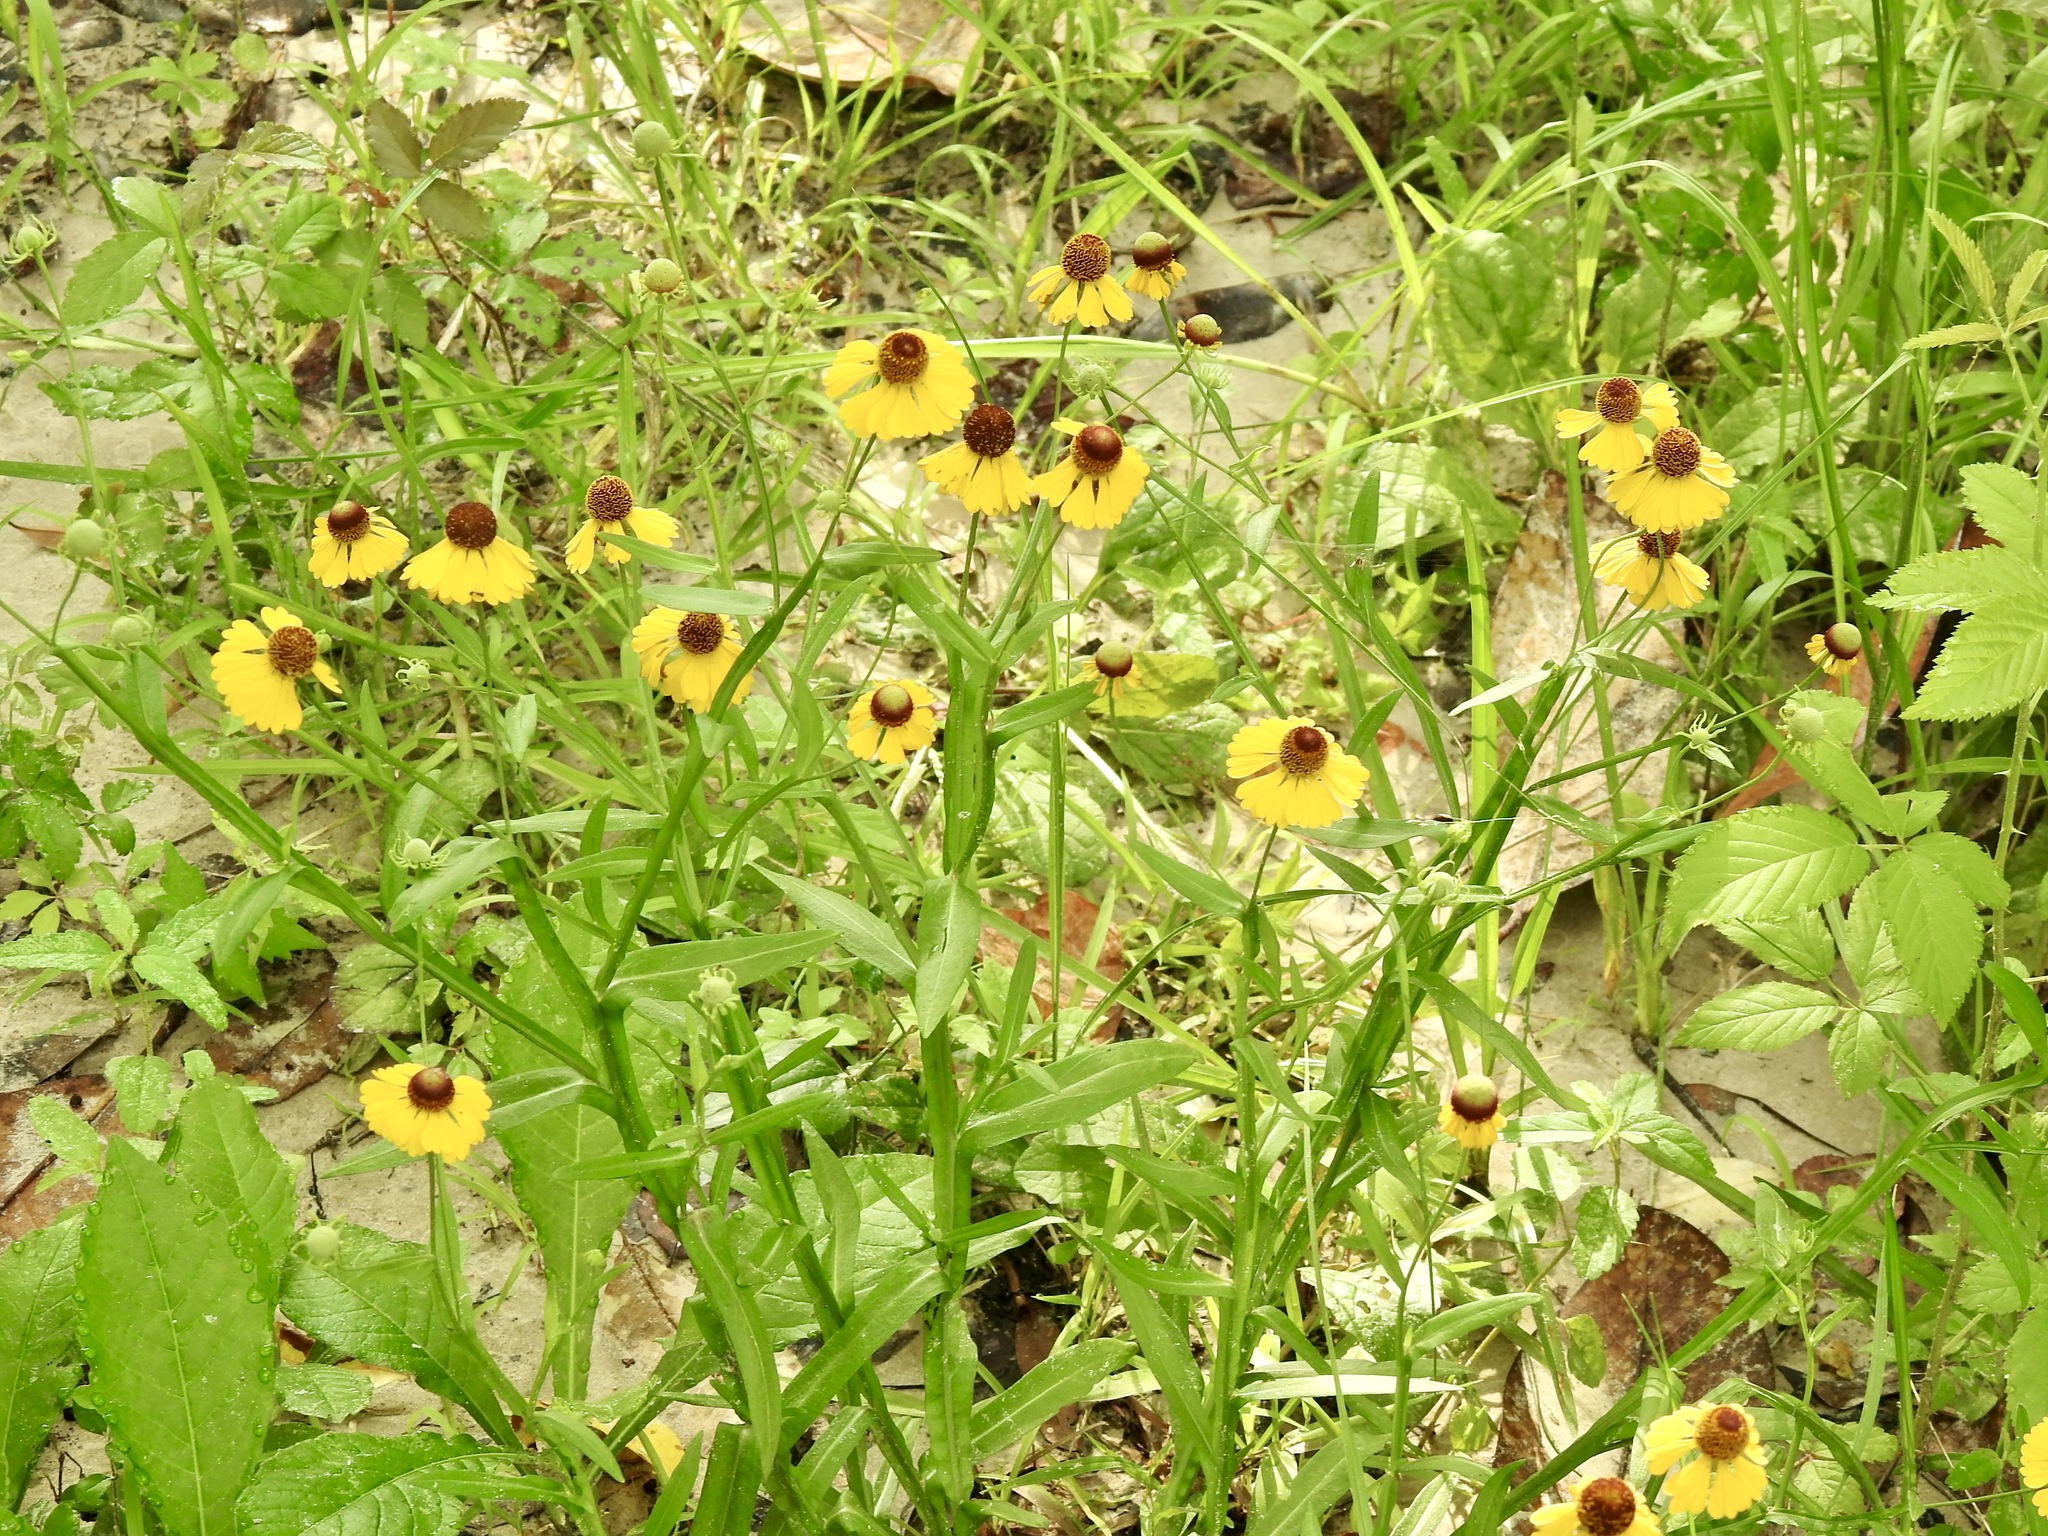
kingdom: Plantae
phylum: Tracheophyta
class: Magnoliopsida
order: Asterales
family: Asteraceae
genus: Helenium
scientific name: Helenium flexuosum
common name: Naked-flowered sneezeweed
